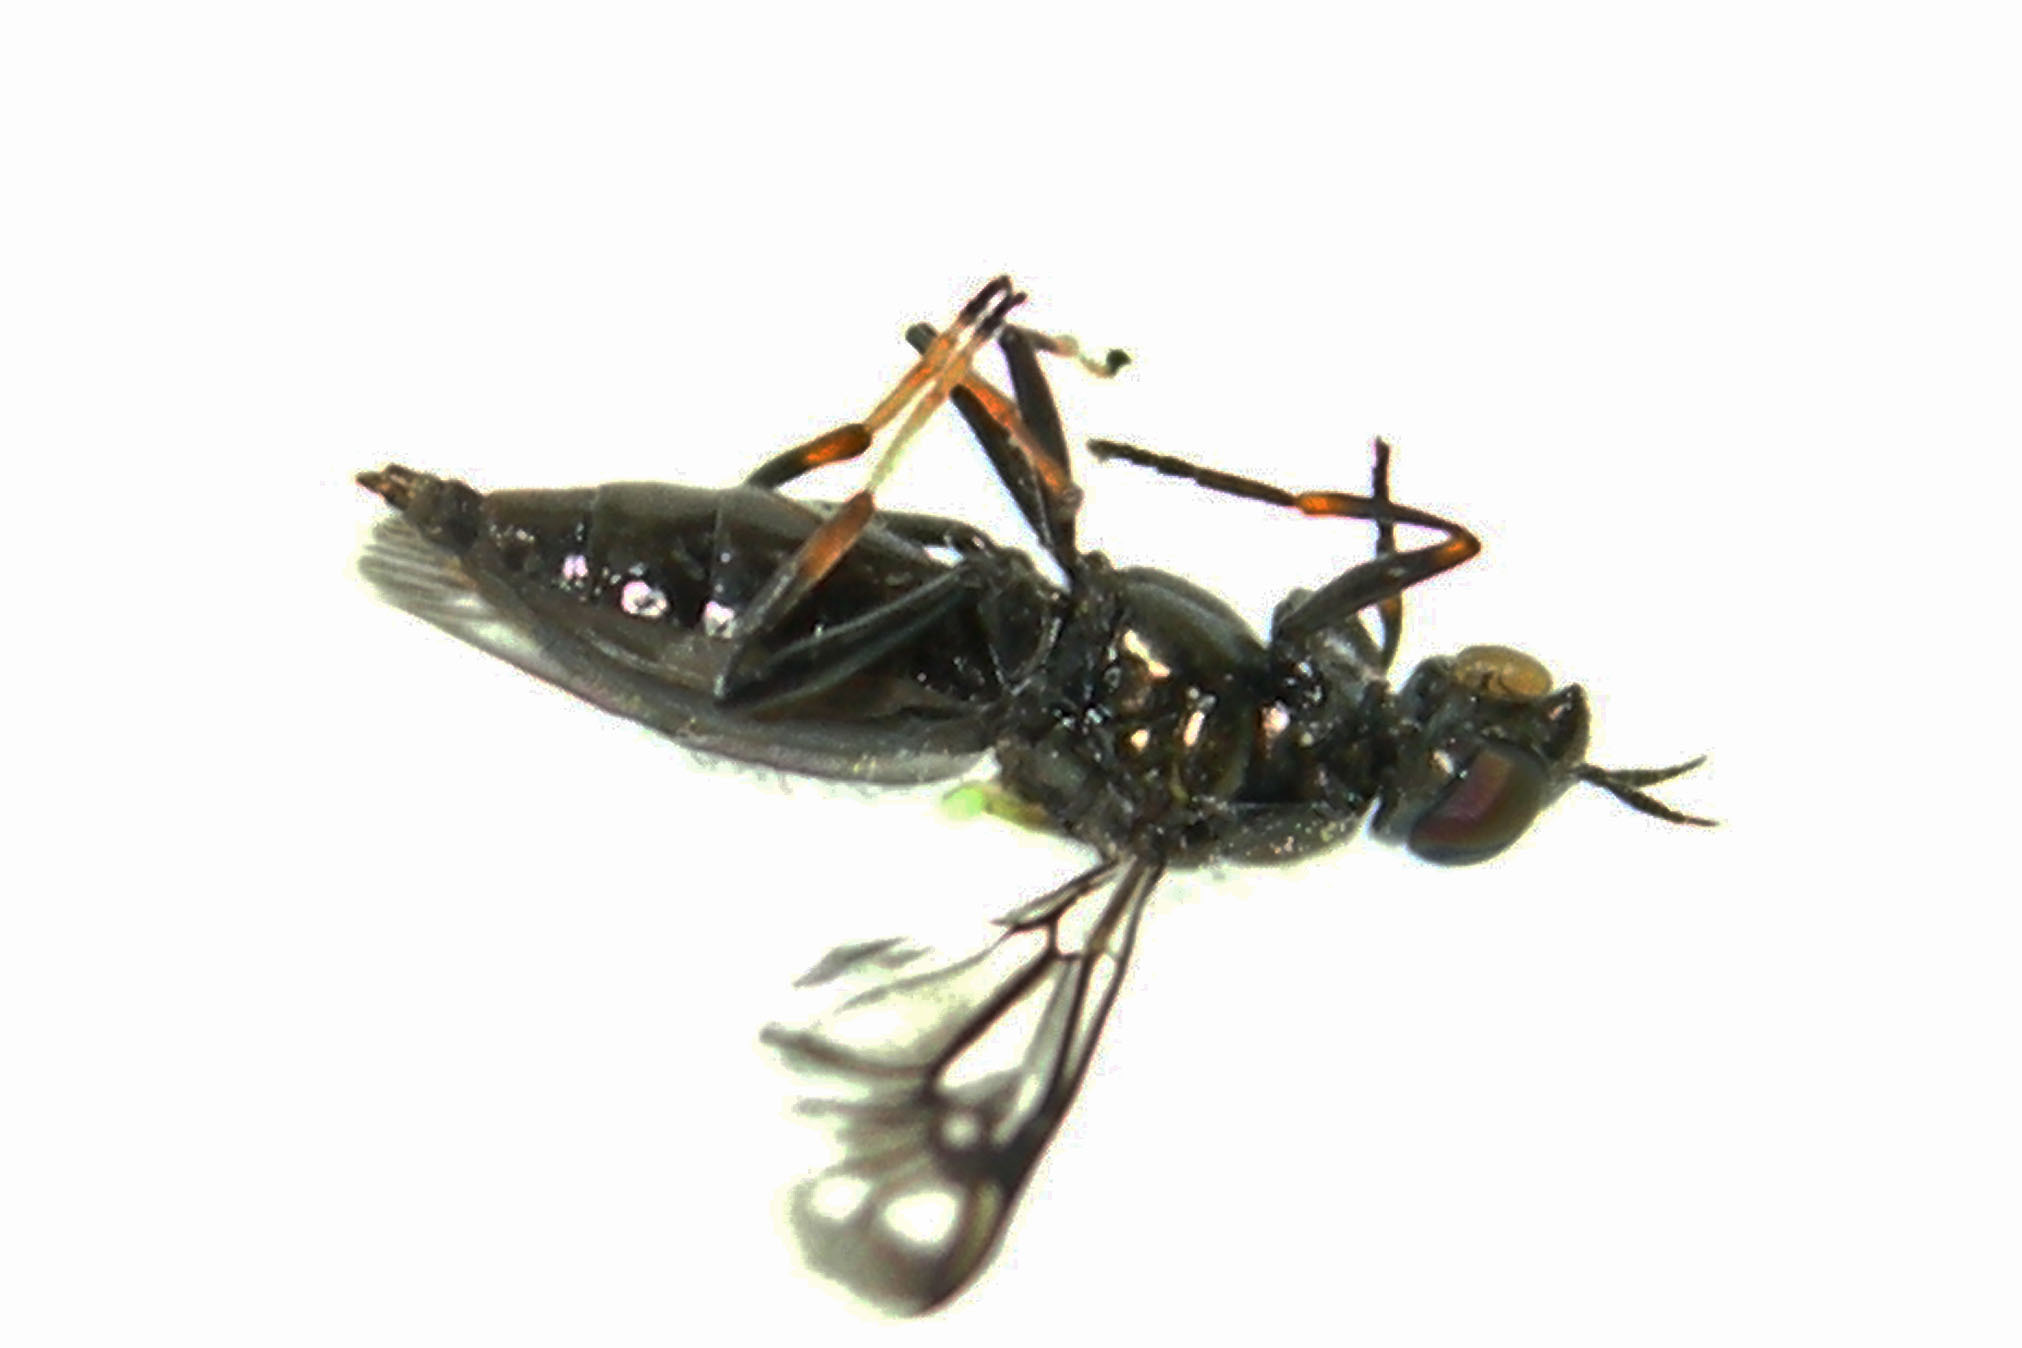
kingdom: Animalia
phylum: Arthropoda
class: Insecta
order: Diptera
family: Stratiomyidae
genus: Myxosargus
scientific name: Myxosargus nigricormis
